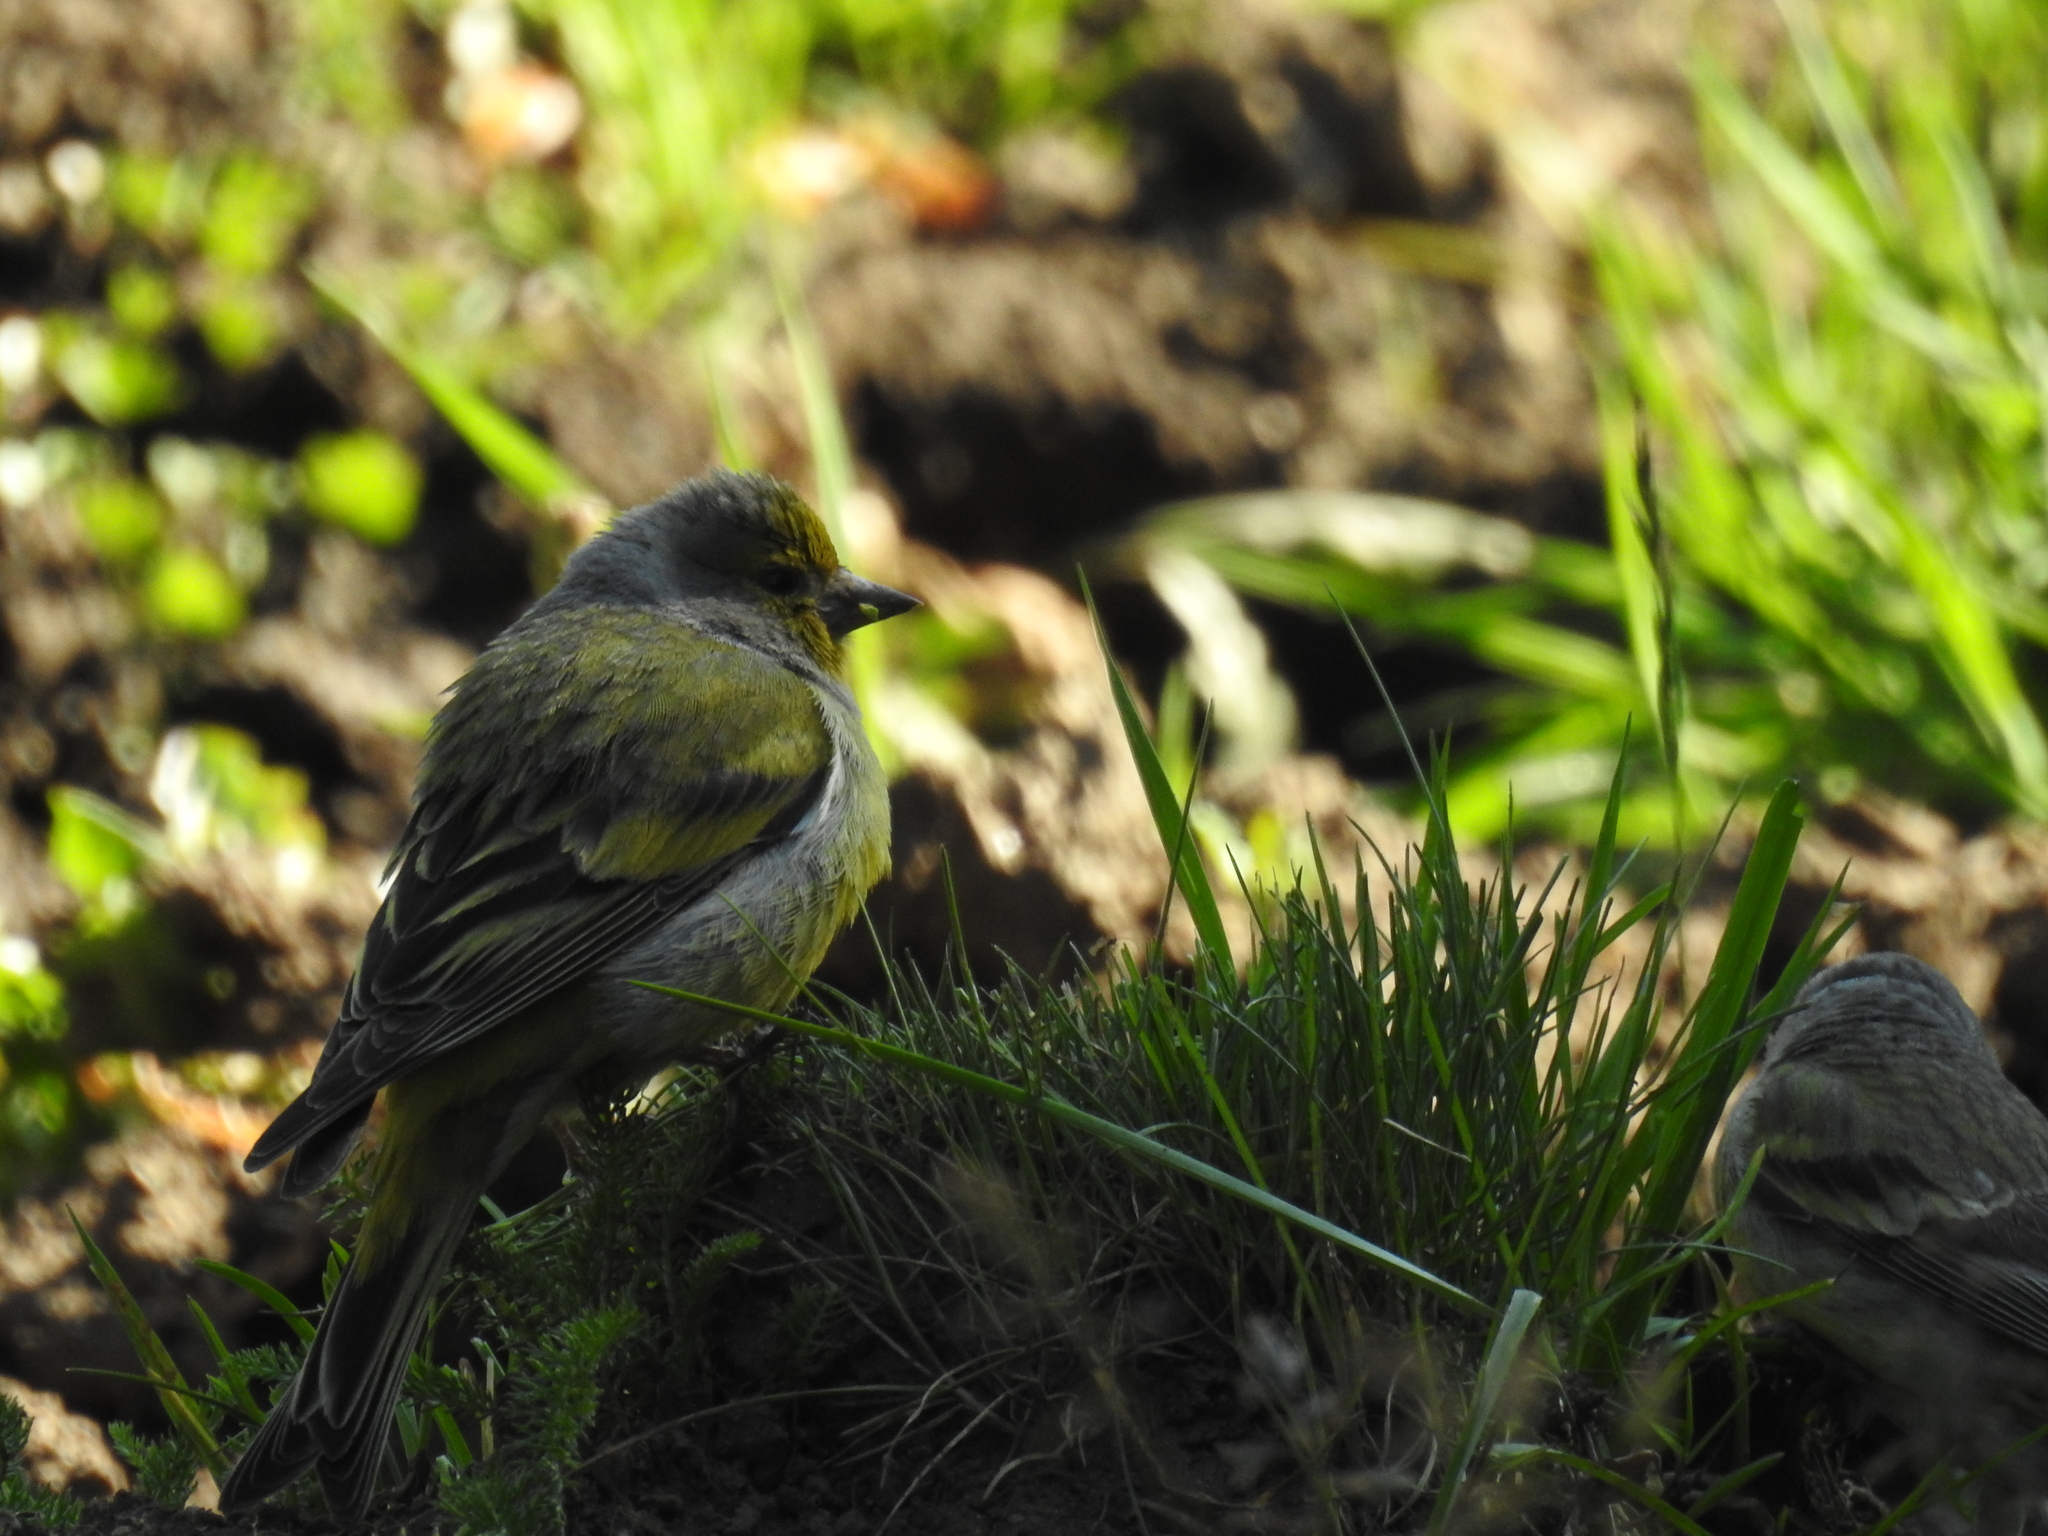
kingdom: Animalia
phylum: Chordata
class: Aves
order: Passeriformes
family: Fringillidae
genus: Carduelis
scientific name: Carduelis citrinella
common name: Citril finch
